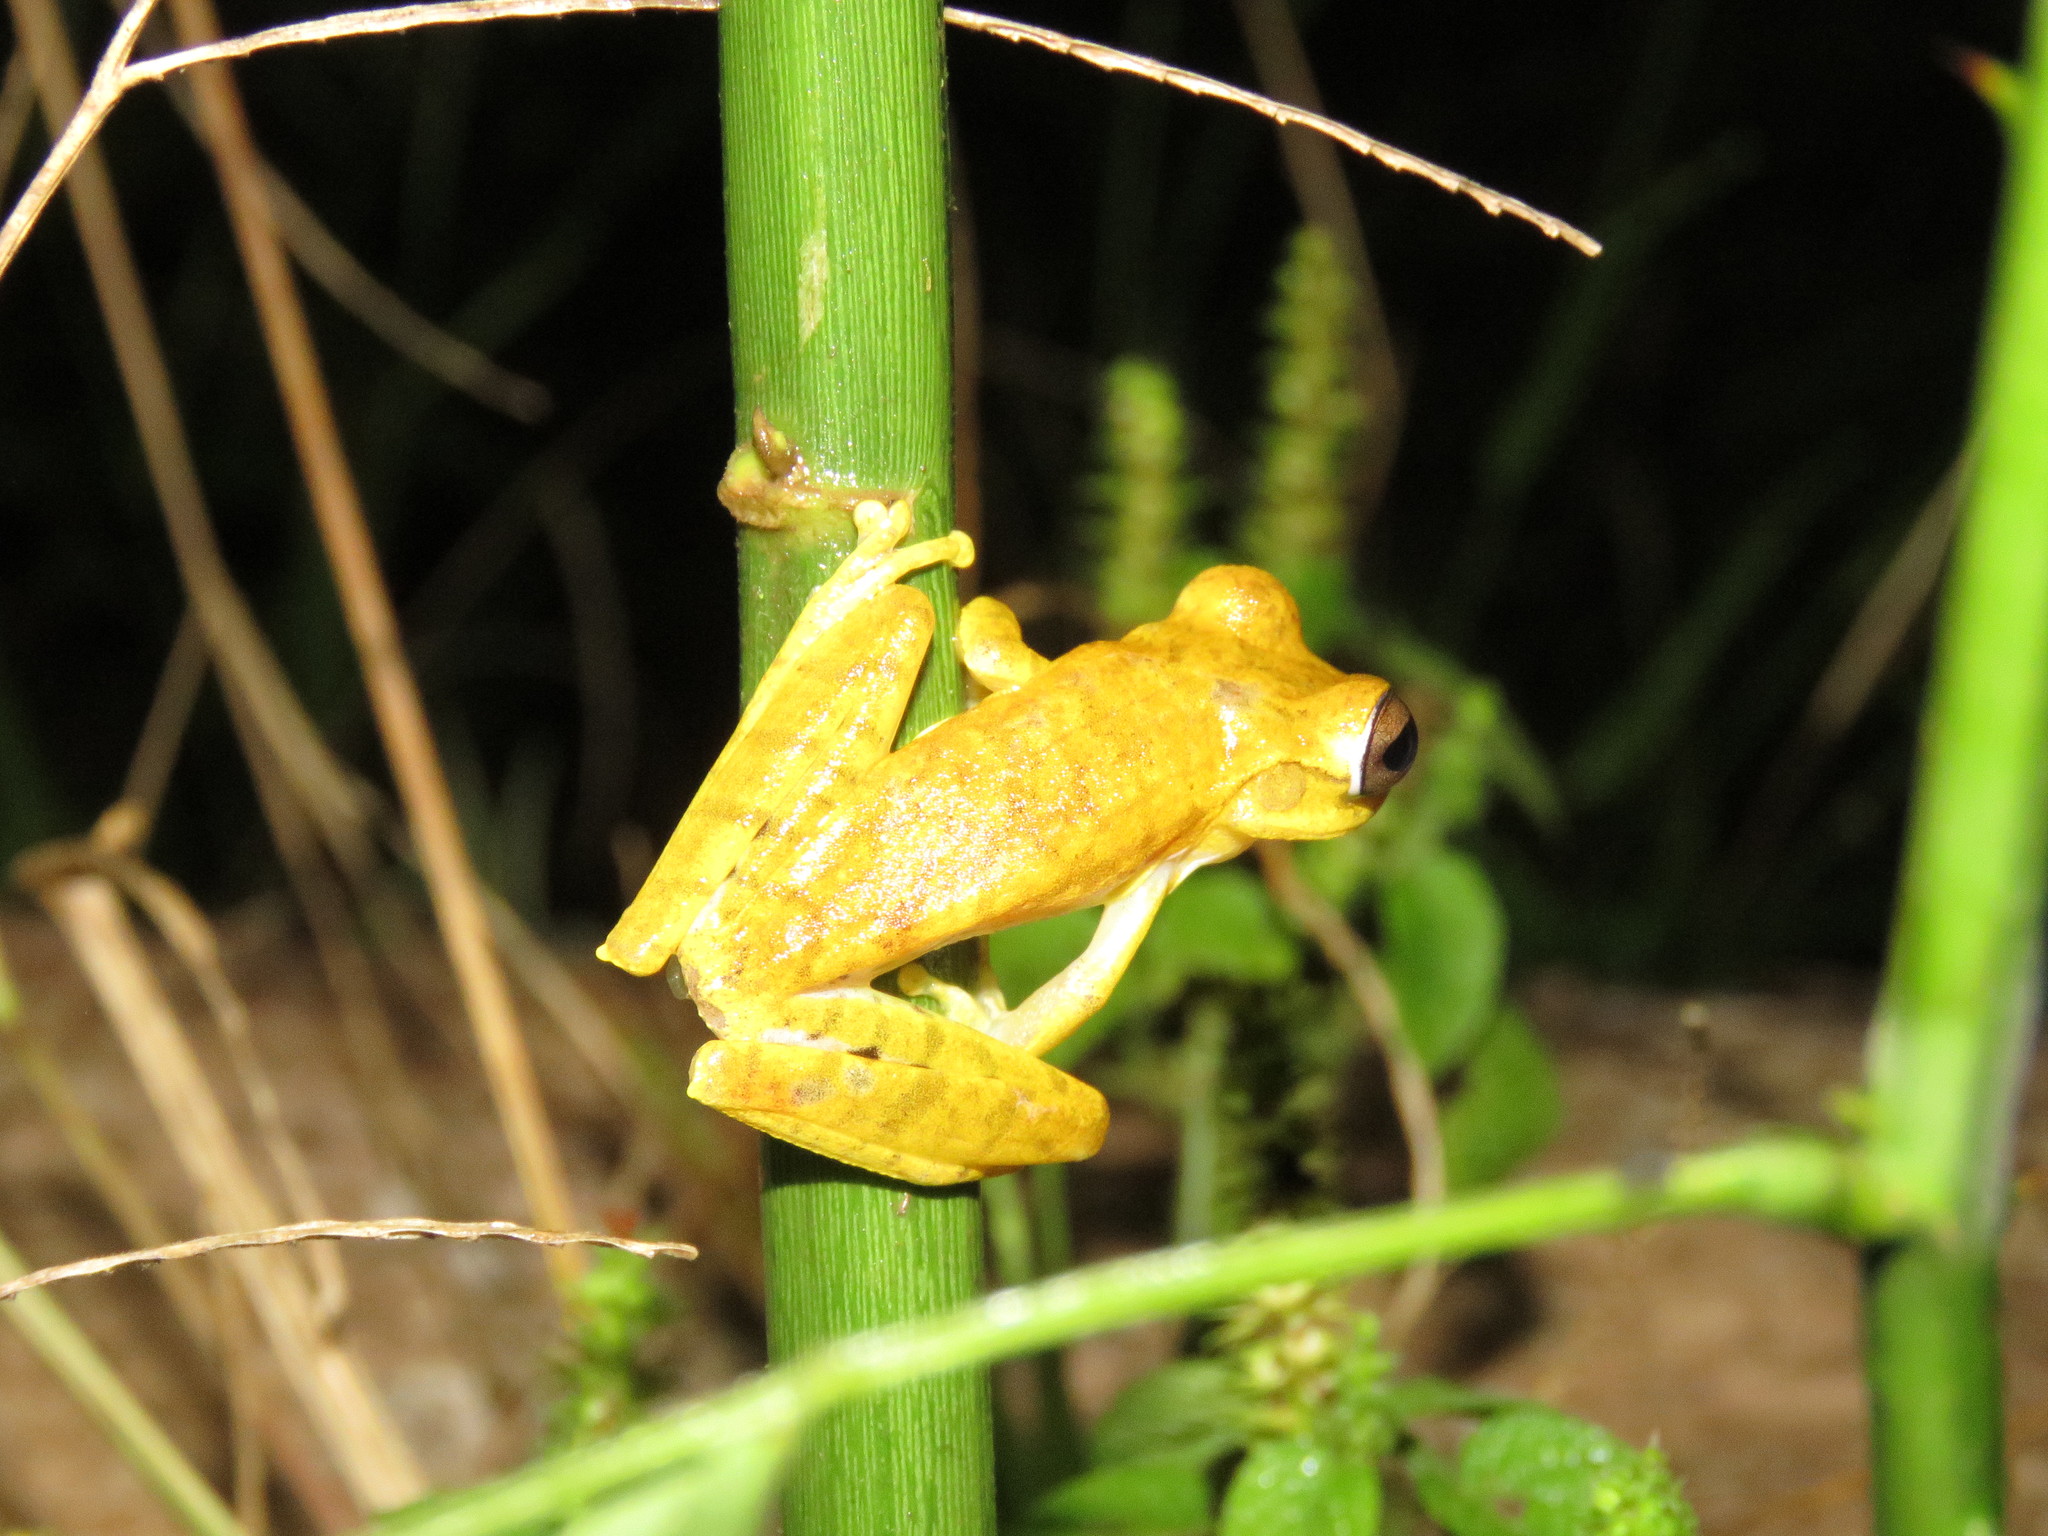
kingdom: Animalia
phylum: Chordata
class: Amphibia
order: Anura
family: Hylidae
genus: Boana
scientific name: Boana steinbachi
